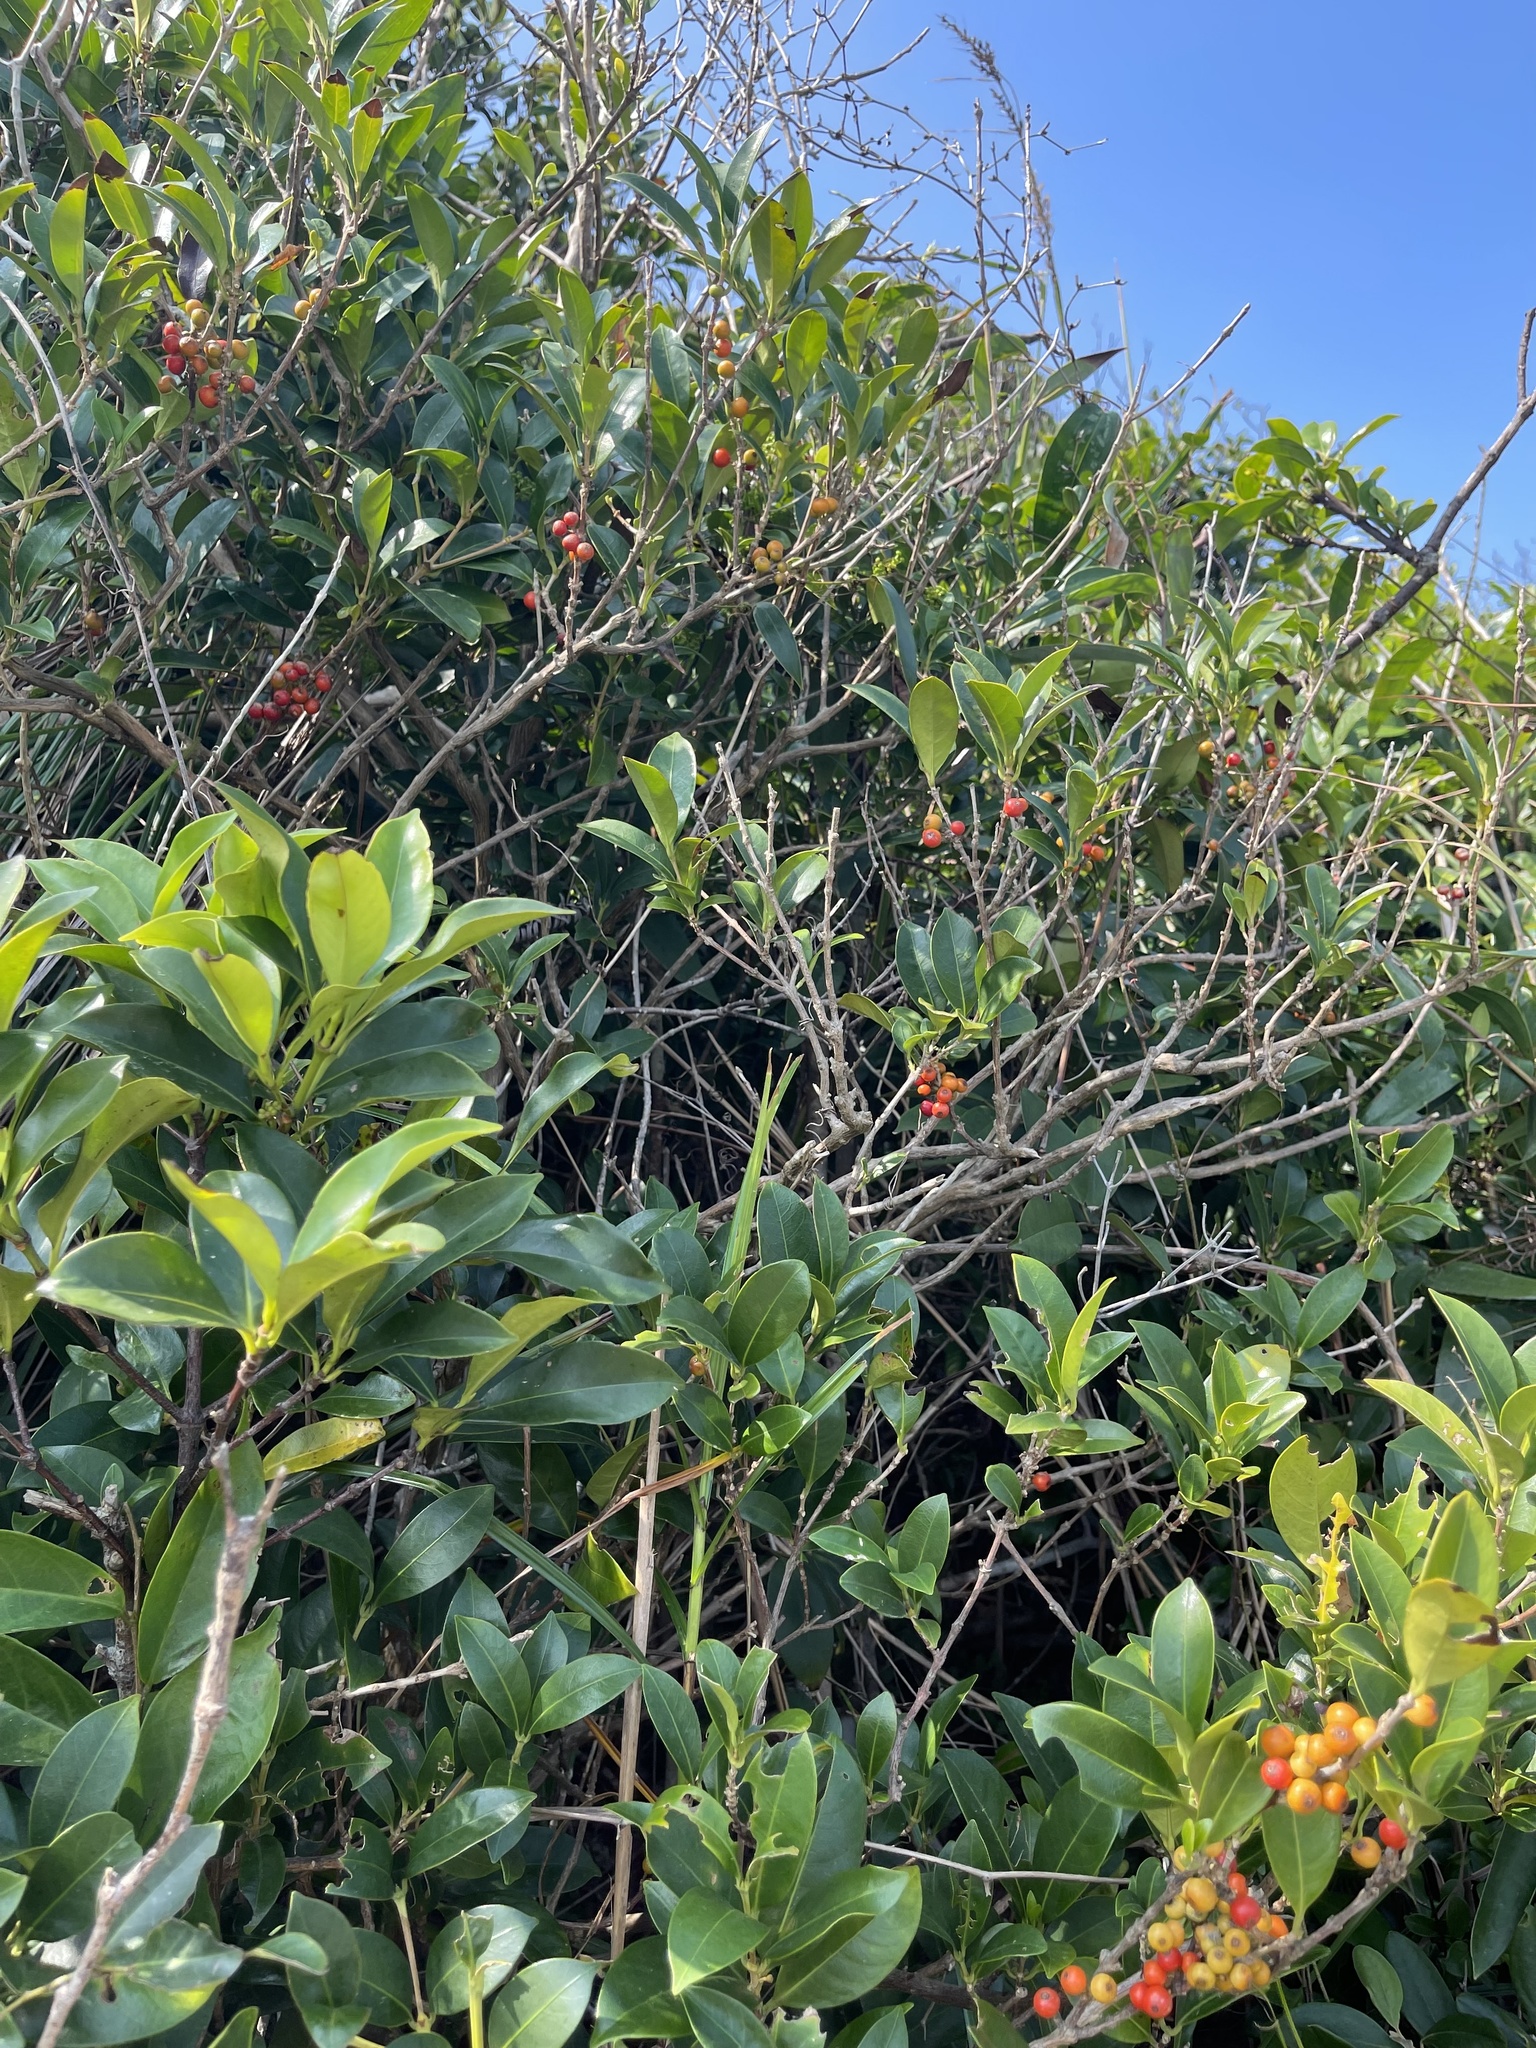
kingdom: Plantae
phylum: Tracheophyta
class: Magnoliopsida
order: Gentianales
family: Rubiaceae
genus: Diplospora
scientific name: Diplospora dubia
